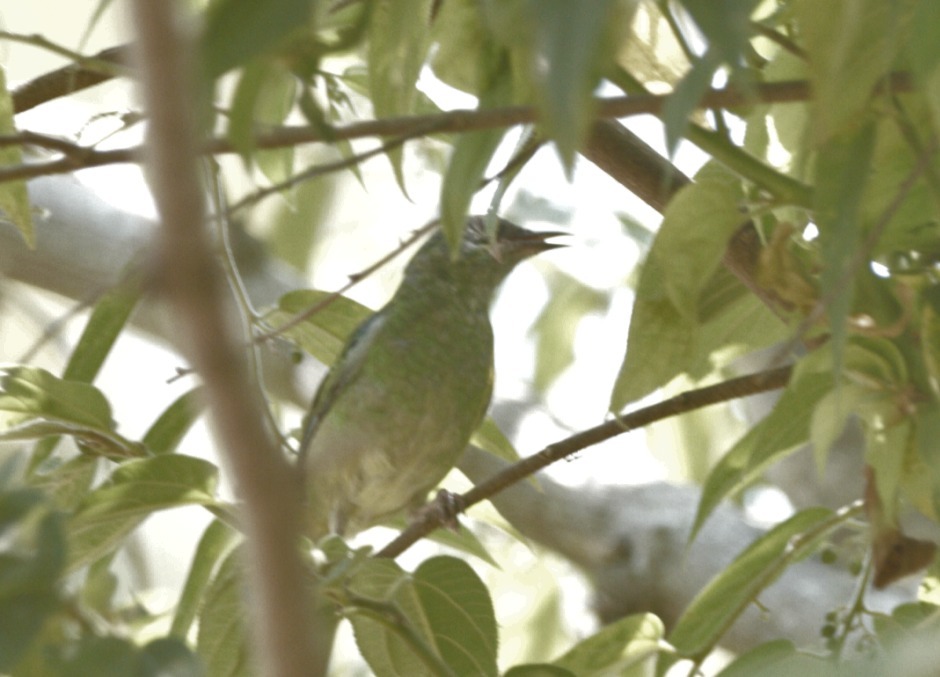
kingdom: Animalia
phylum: Chordata
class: Aves
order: Passeriformes
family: Thraupidae
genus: Dacnis
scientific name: Dacnis cayana
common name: Blue dacnis
